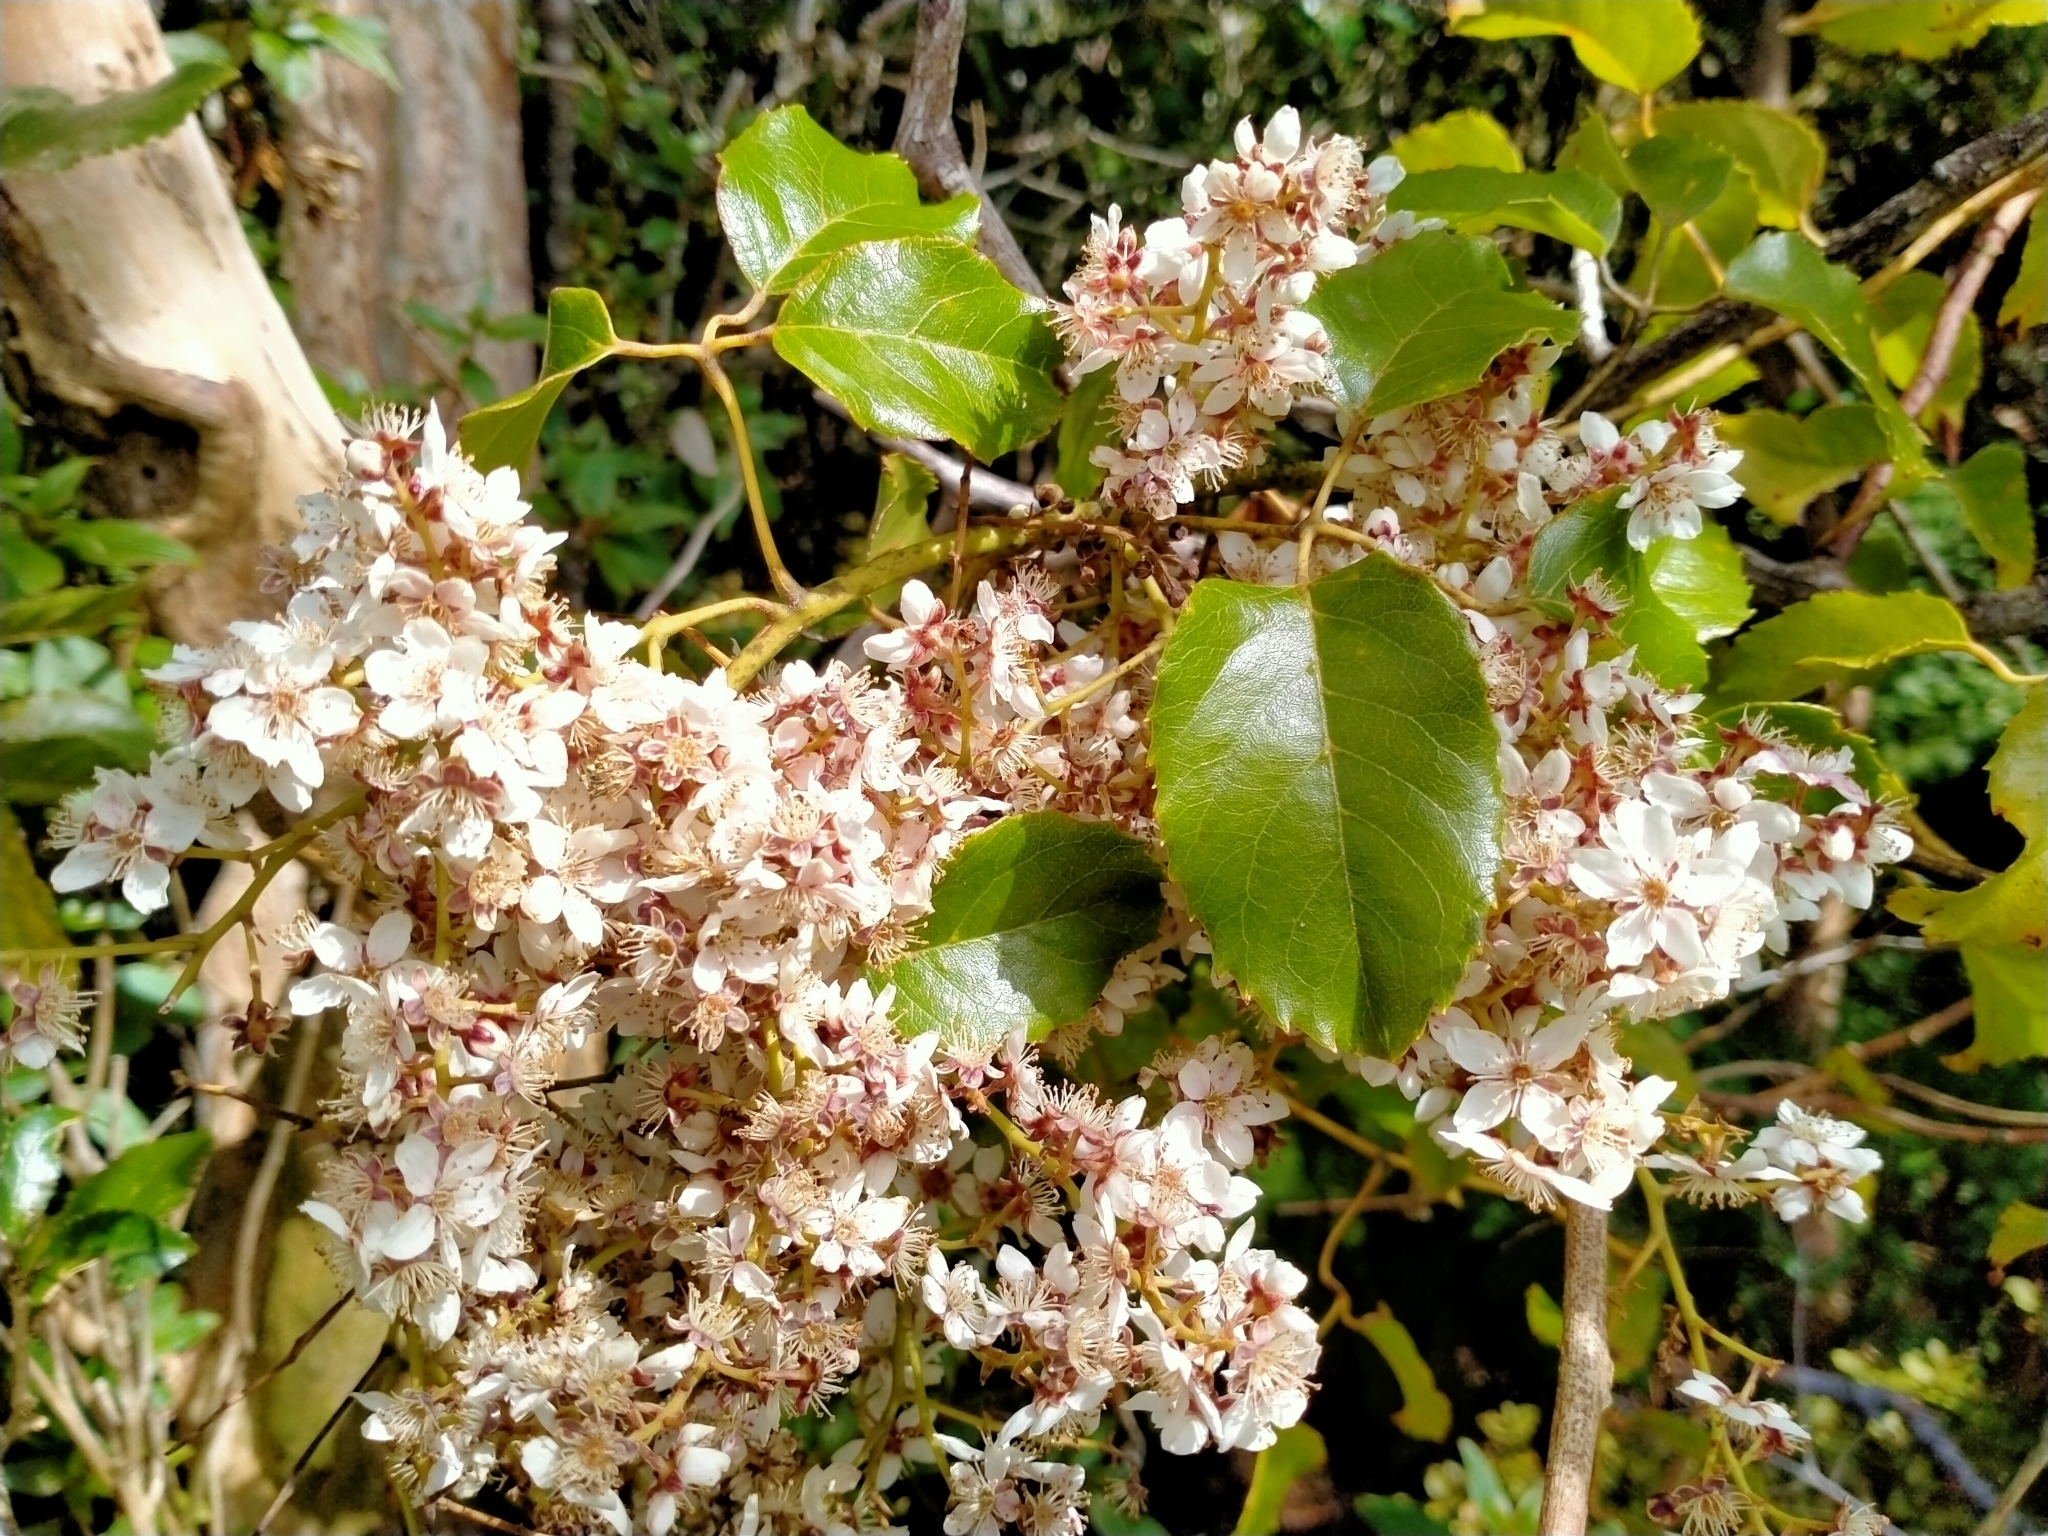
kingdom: Plantae
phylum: Tracheophyta
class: Magnoliopsida
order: Rosales
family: Rosaceae
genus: Rubus
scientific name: Rubus cissoides
